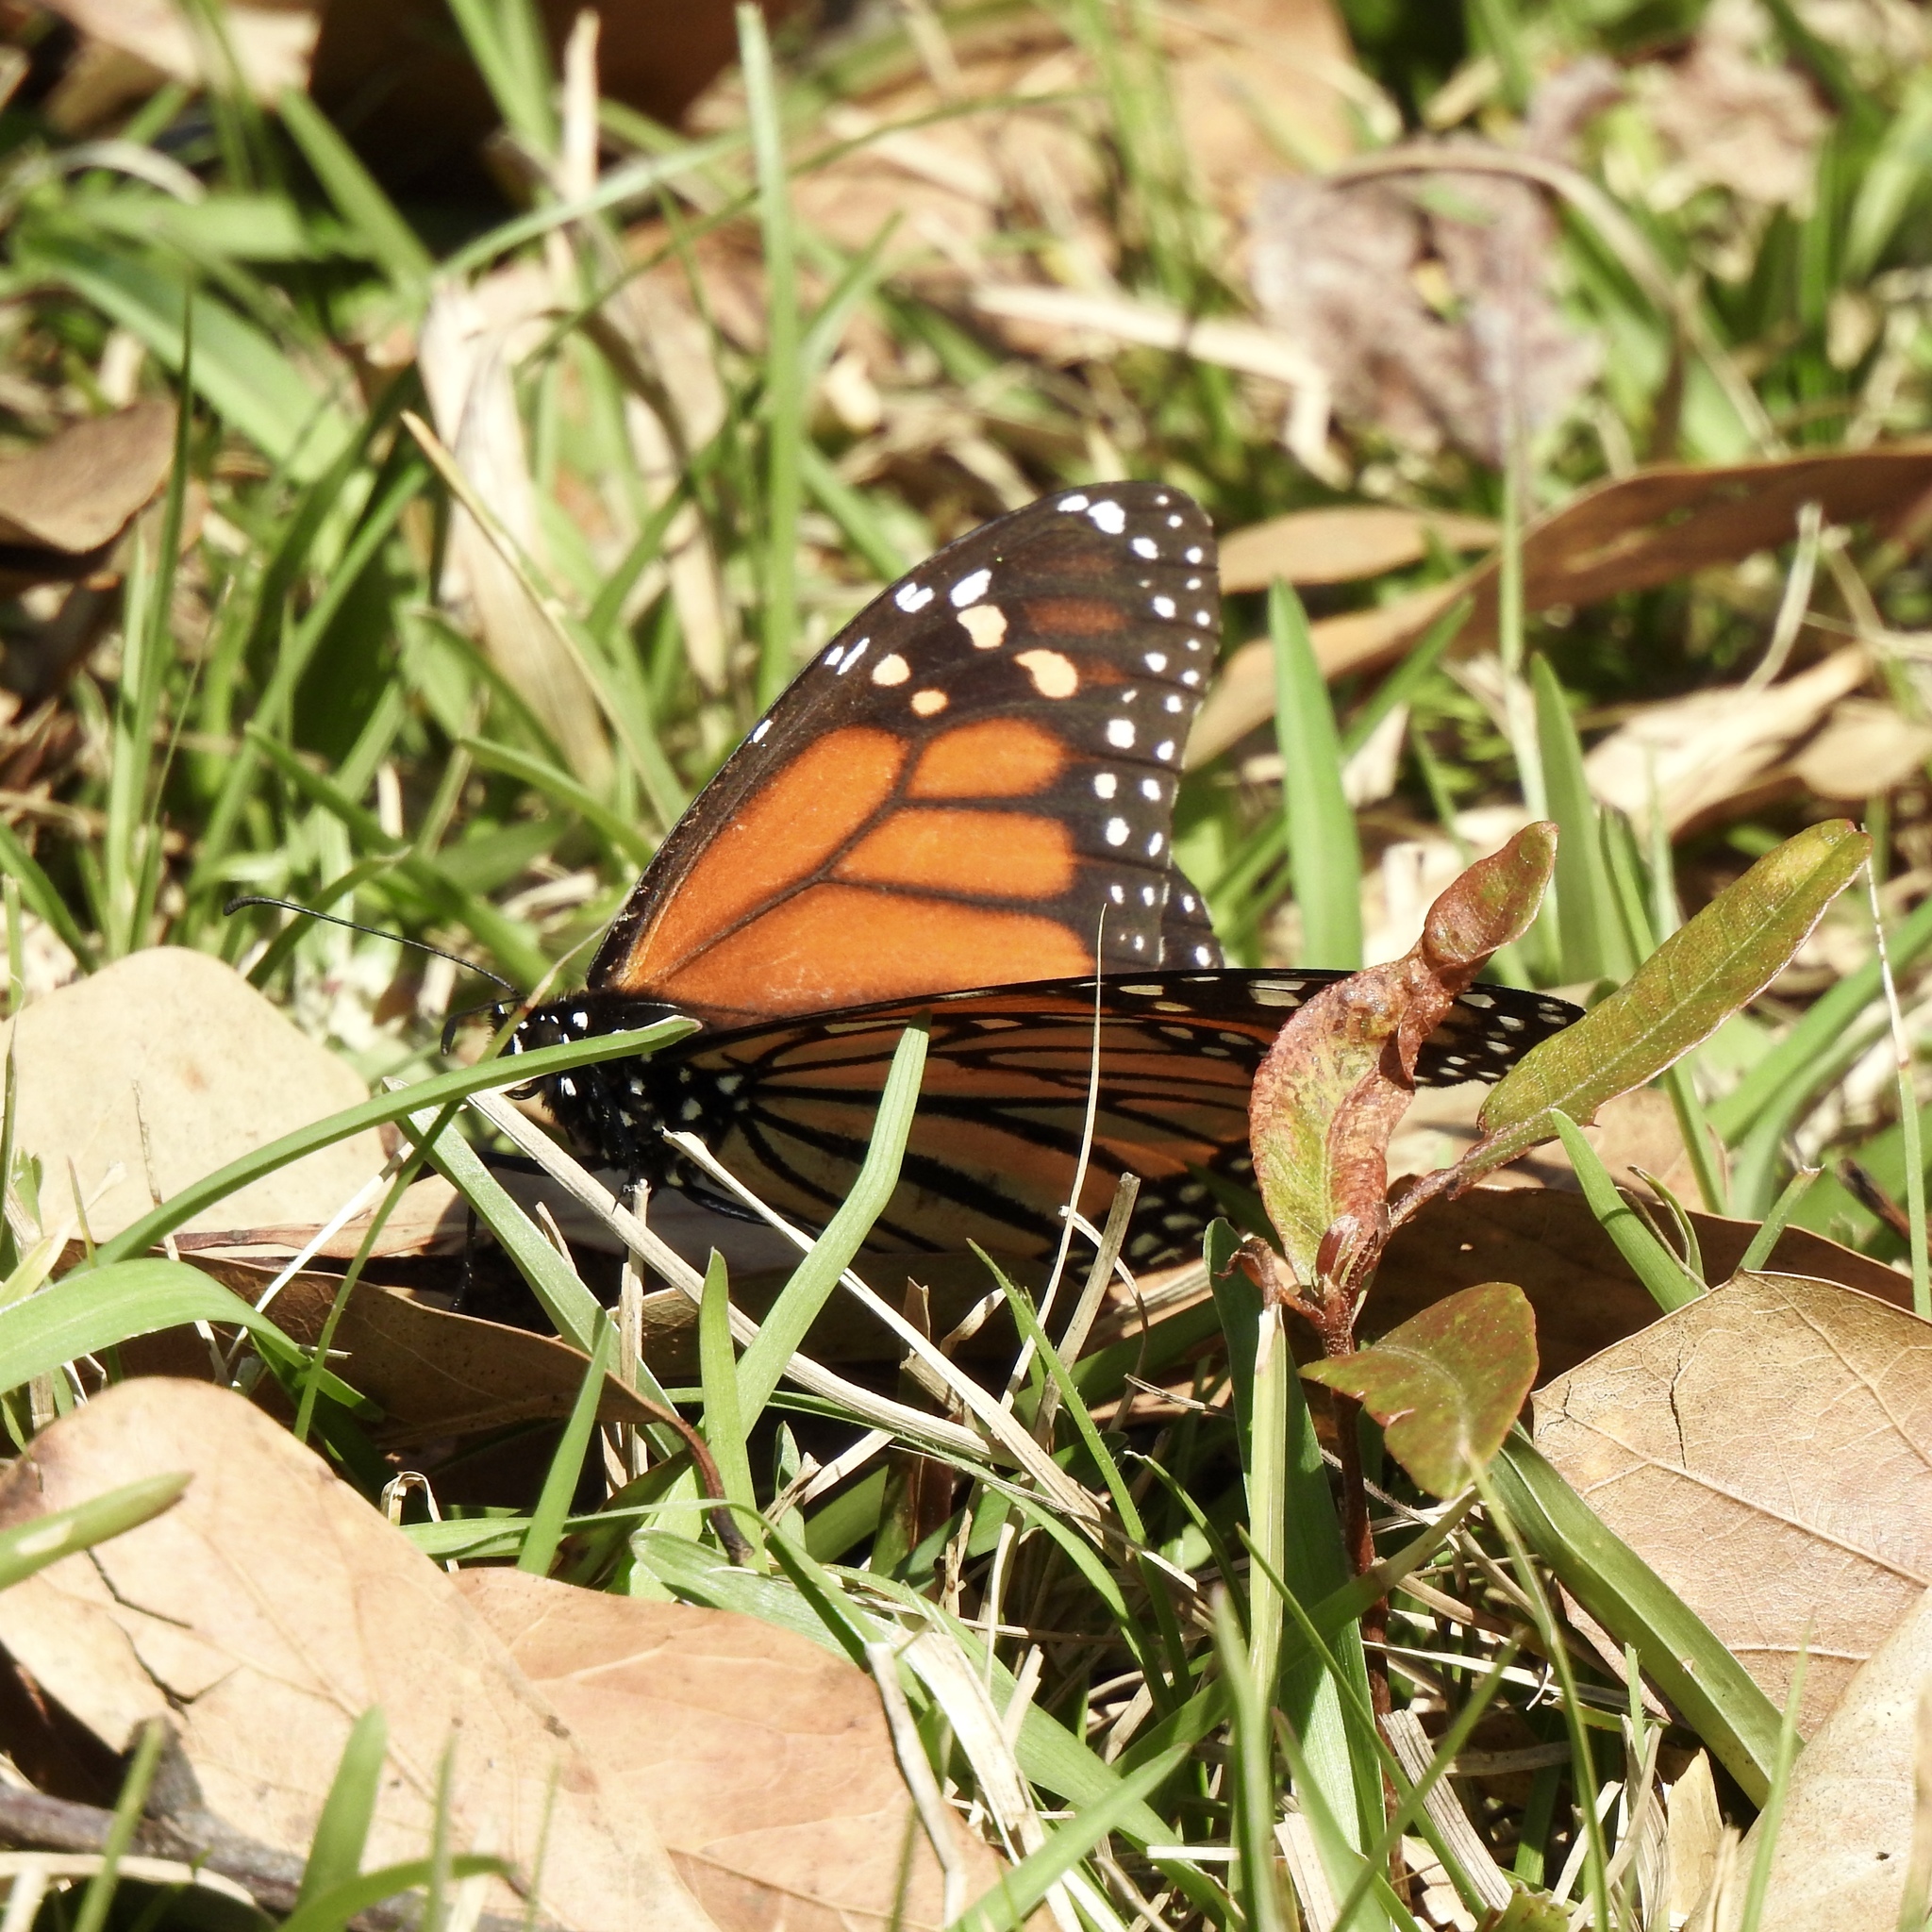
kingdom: Animalia
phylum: Arthropoda
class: Insecta
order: Lepidoptera
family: Nymphalidae
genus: Danaus
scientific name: Danaus plexippus
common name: Monarch
